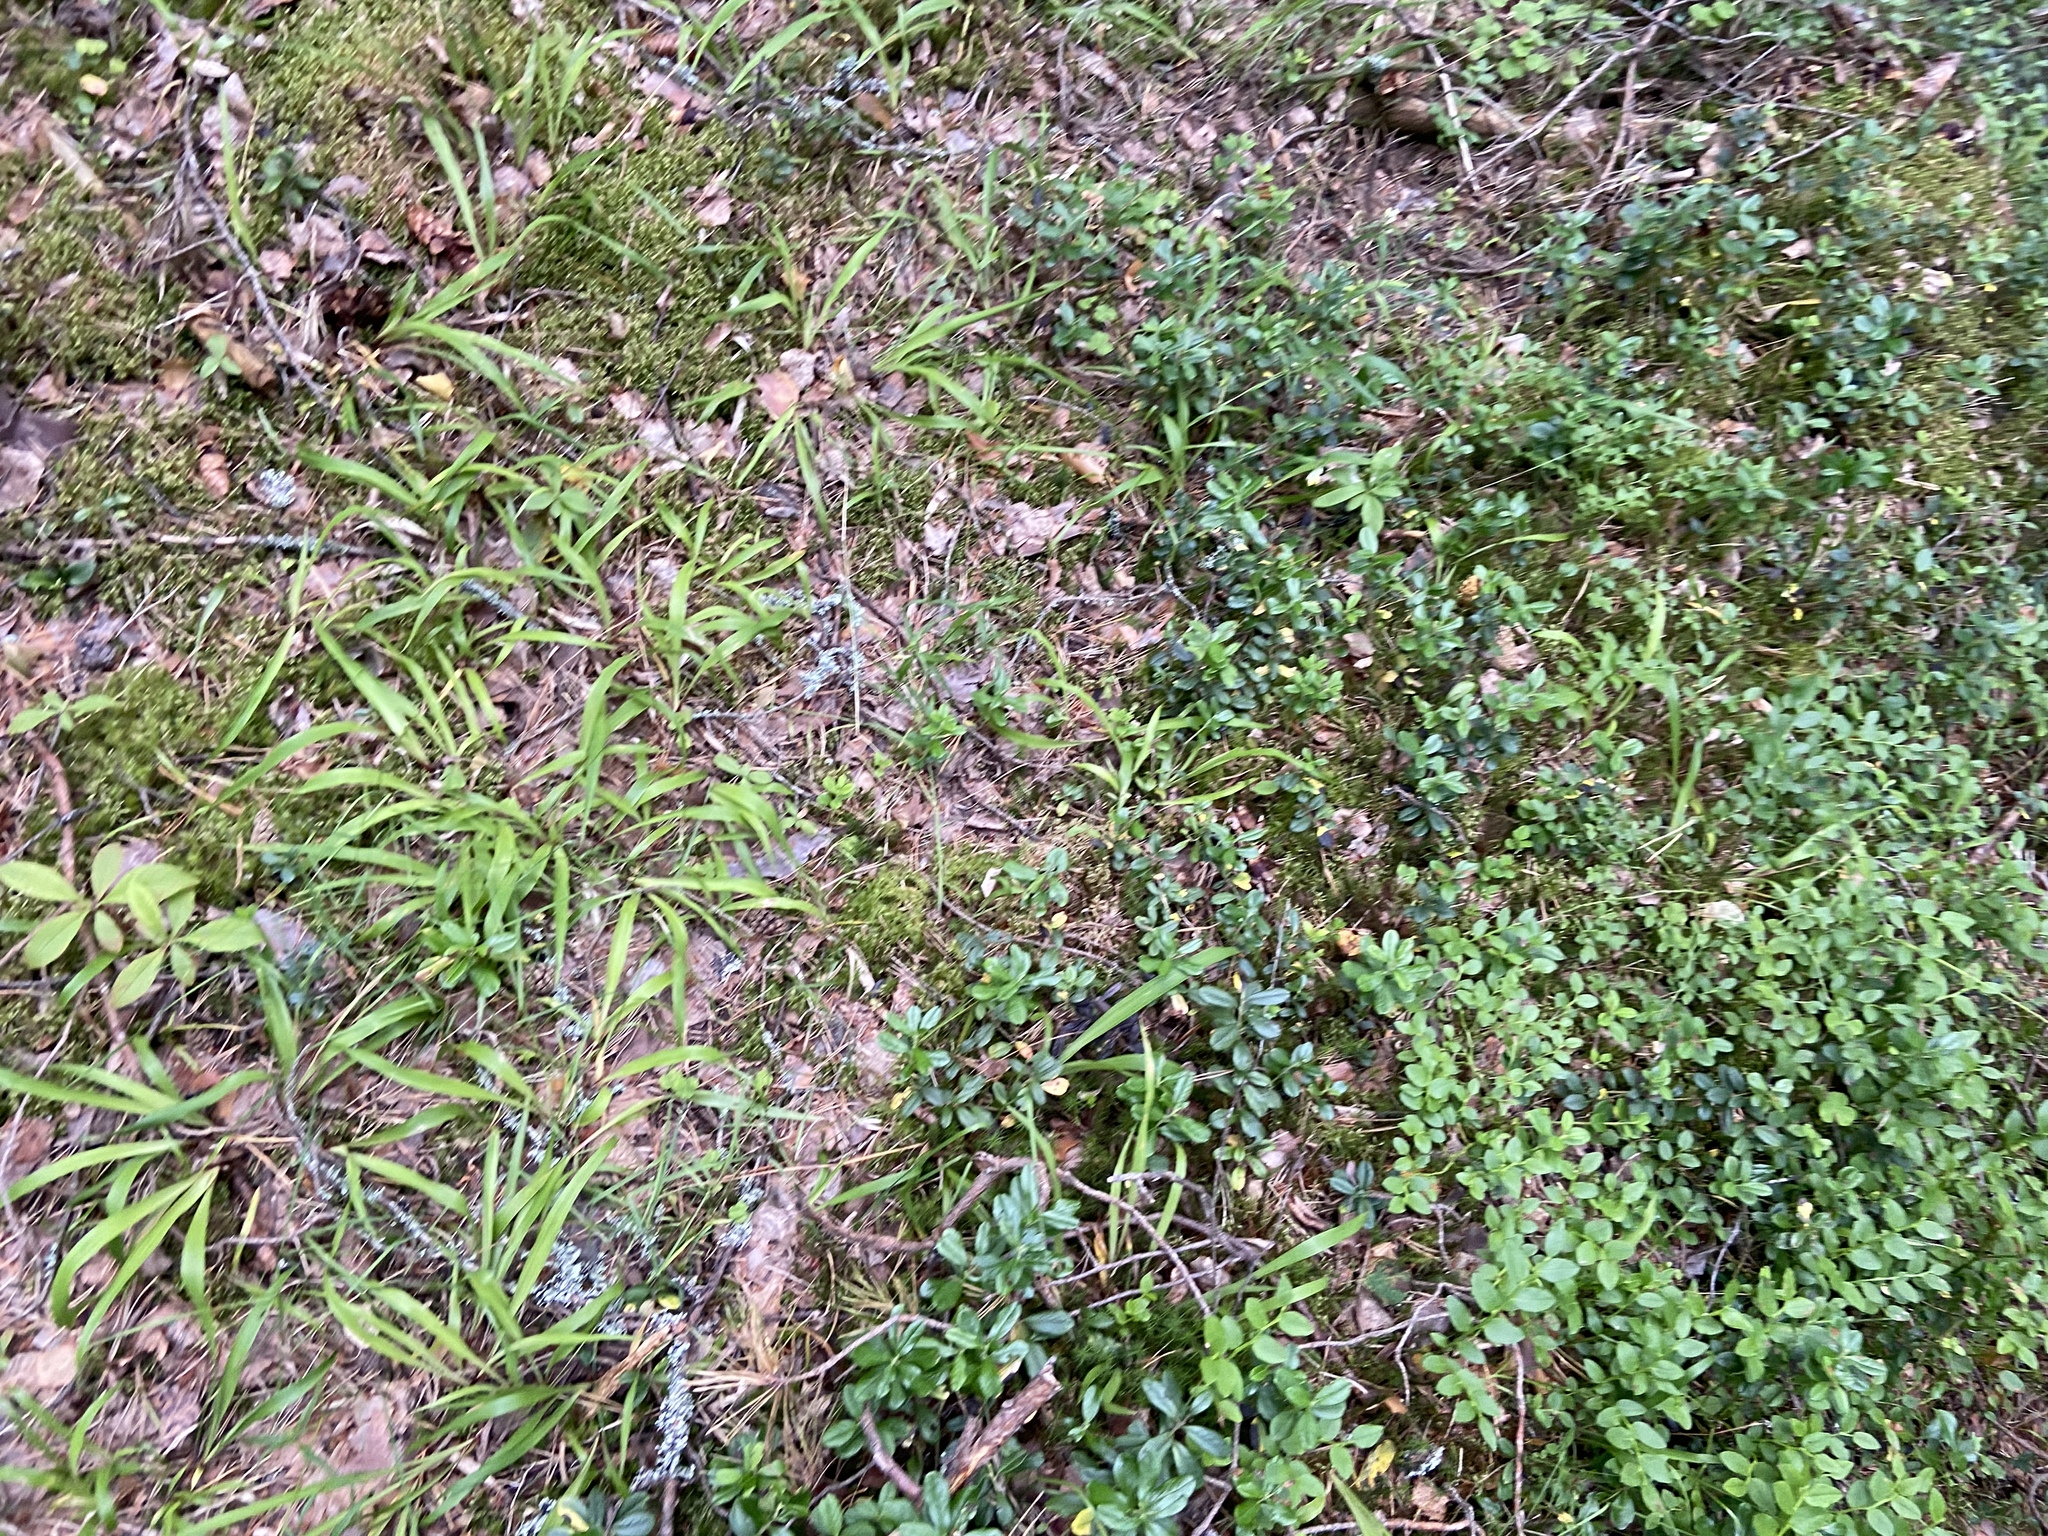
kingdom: Plantae
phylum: Tracheophyta
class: Liliopsida
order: Poales
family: Juncaceae
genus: Luzula
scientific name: Luzula pilosa
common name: Hairy wood-rush
